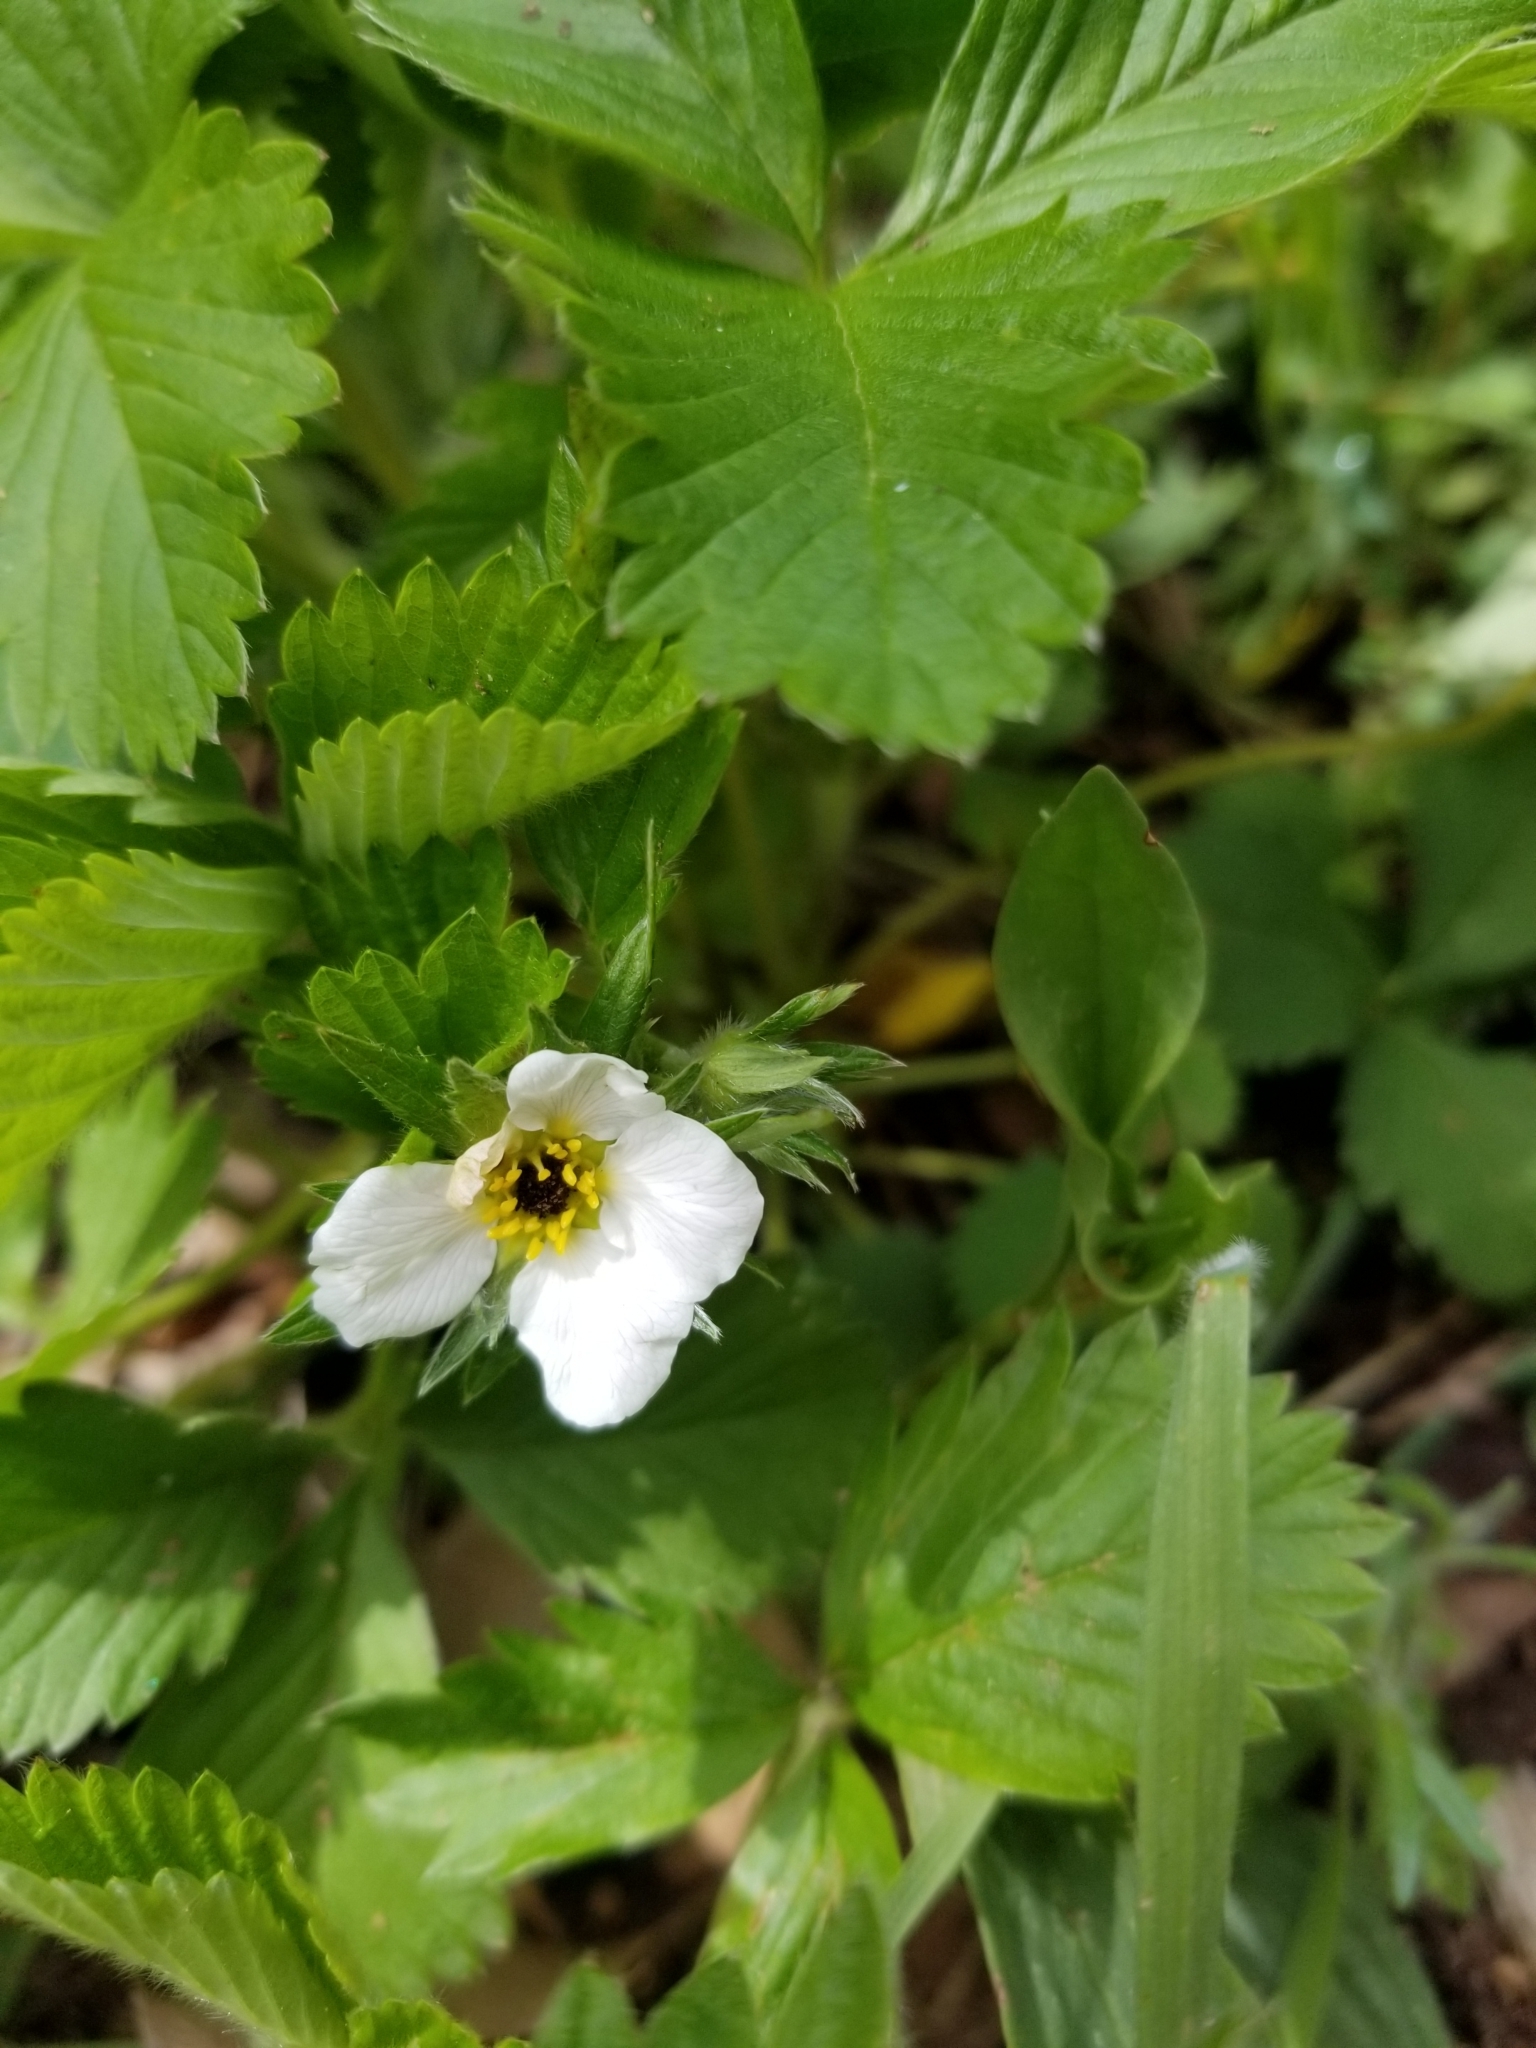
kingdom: Plantae
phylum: Tracheophyta
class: Magnoliopsida
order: Rosales
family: Rosaceae
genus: Fragaria
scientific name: Fragaria vesca
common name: Wild strawberry
